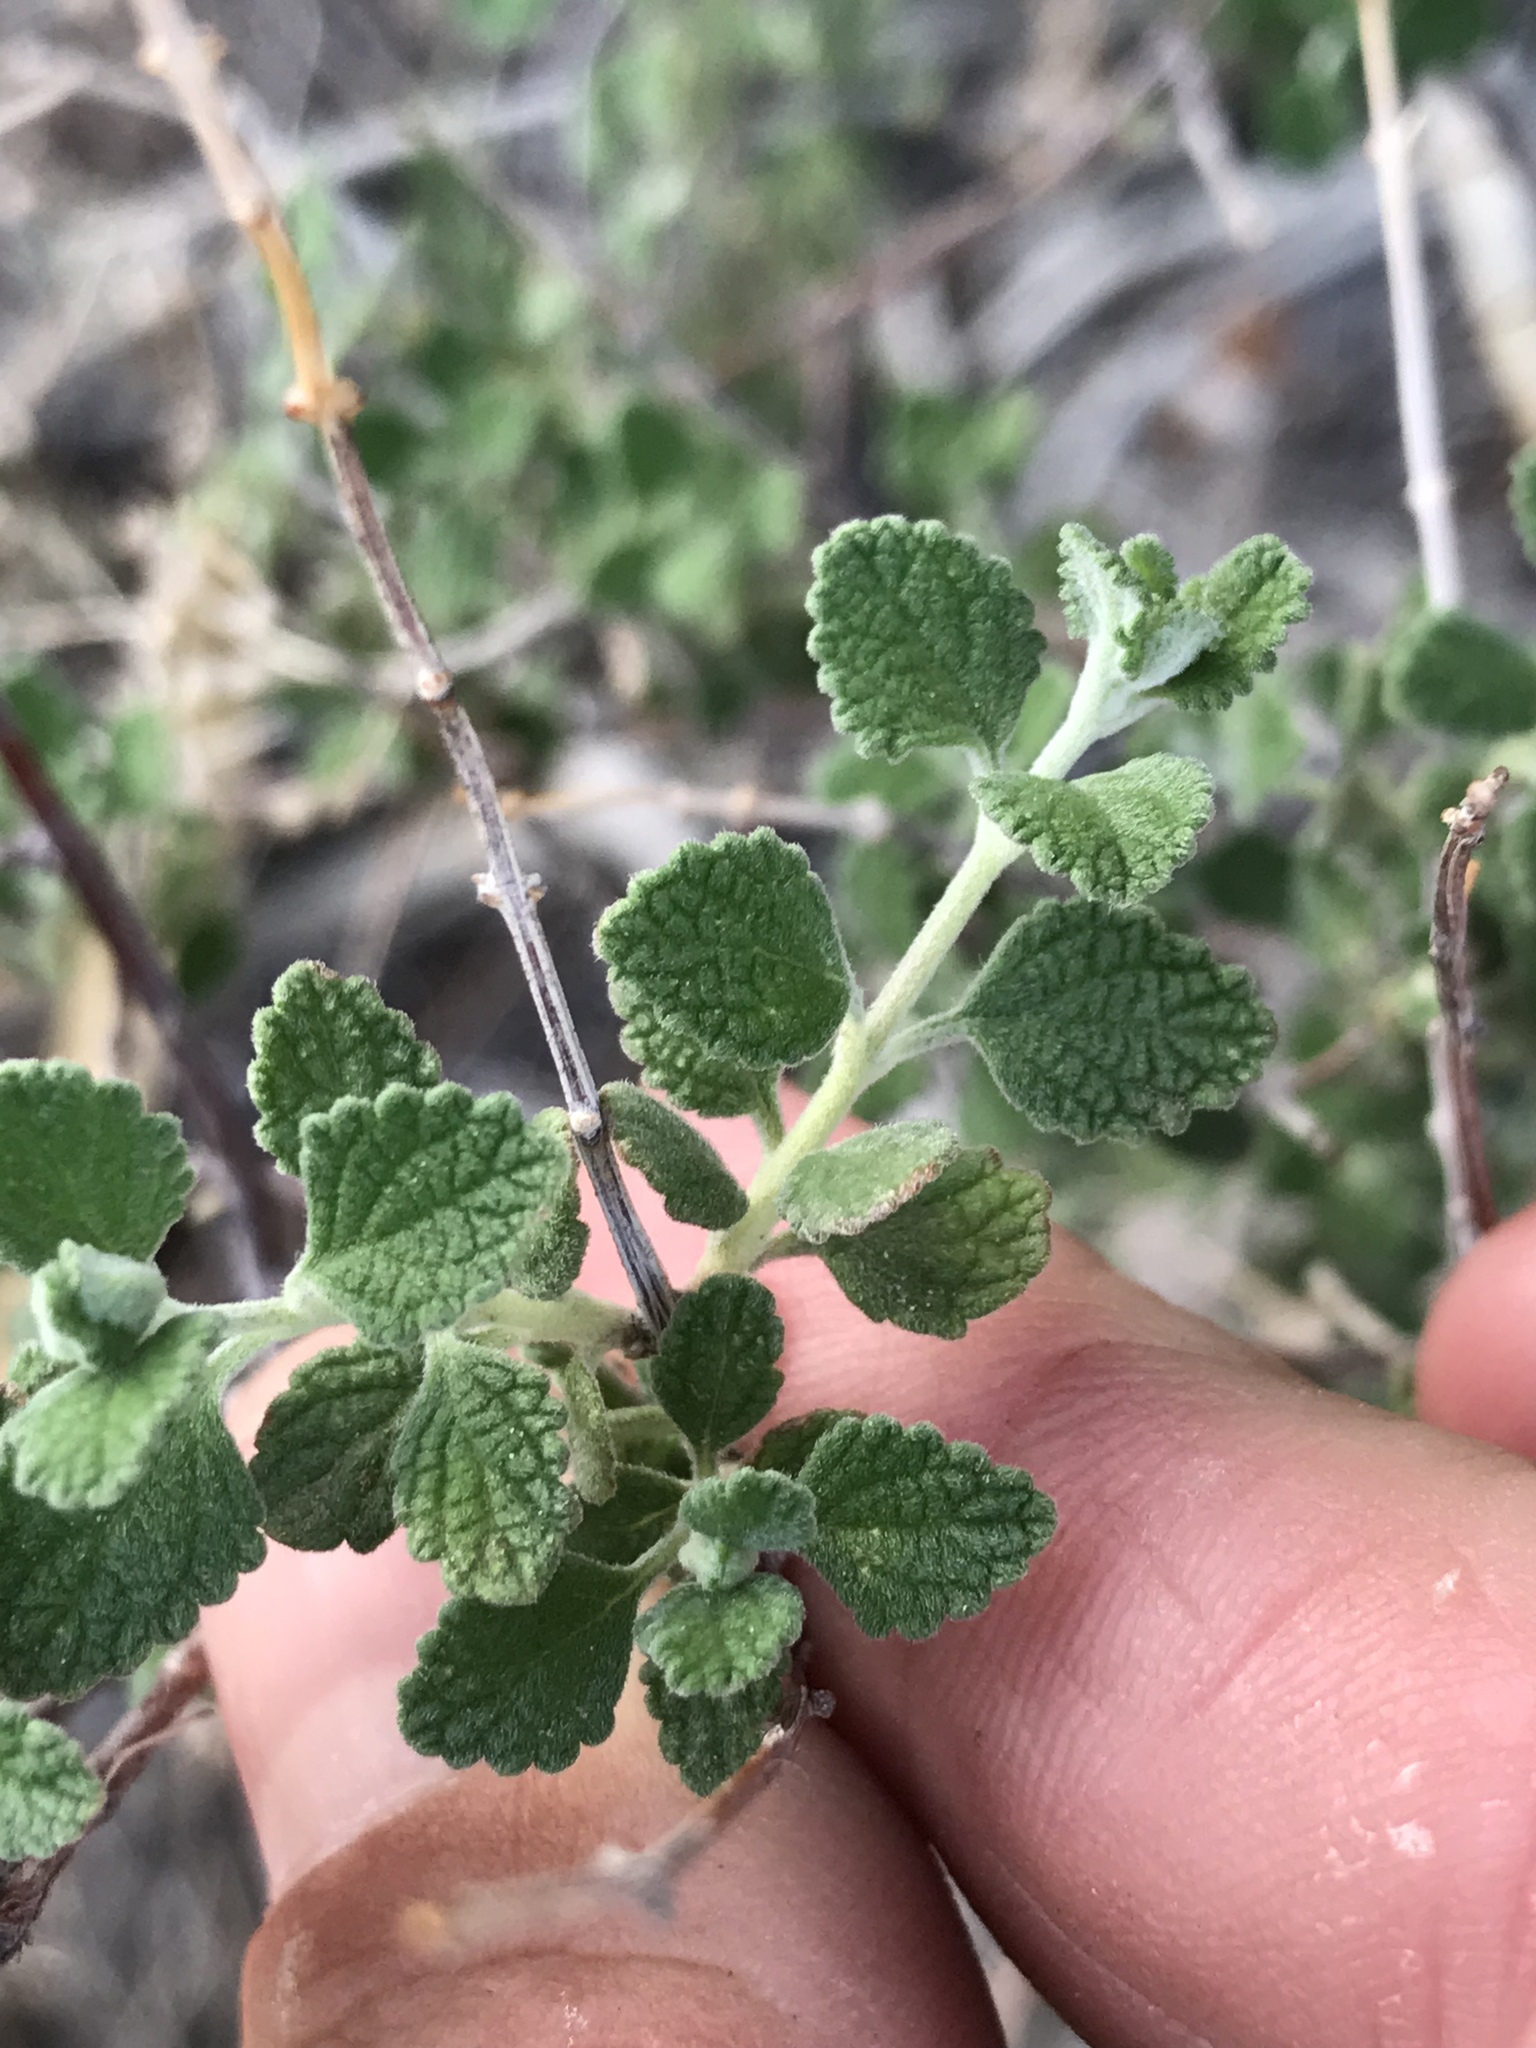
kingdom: Plantae
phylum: Tracheophyta
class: Magnoliopsida
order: Lamiales
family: Verbenaceae
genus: Aloysia
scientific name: Aloysia wrightii
